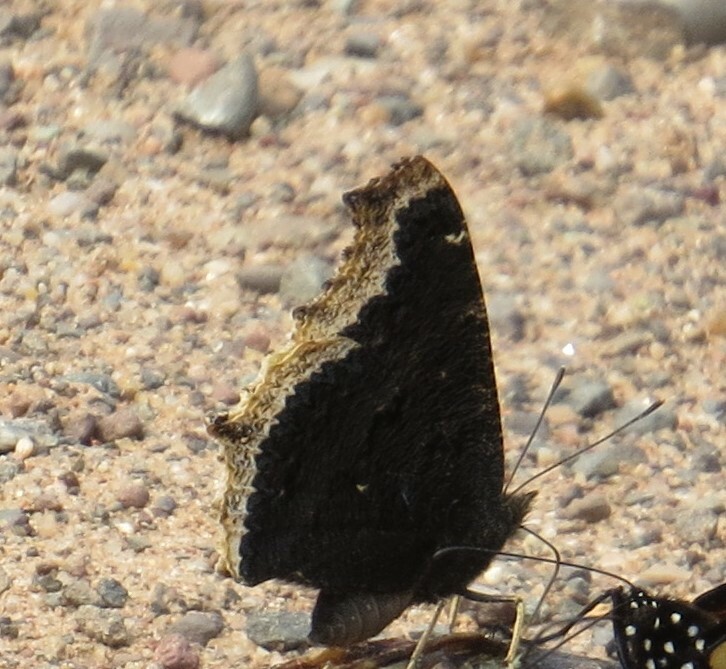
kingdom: Animalia
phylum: Arthropoda
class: Insecta
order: Lepidoptera
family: Nymphalidae
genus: Nymphalis
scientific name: Nymphalis antiopa
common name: Camberwell beauty
